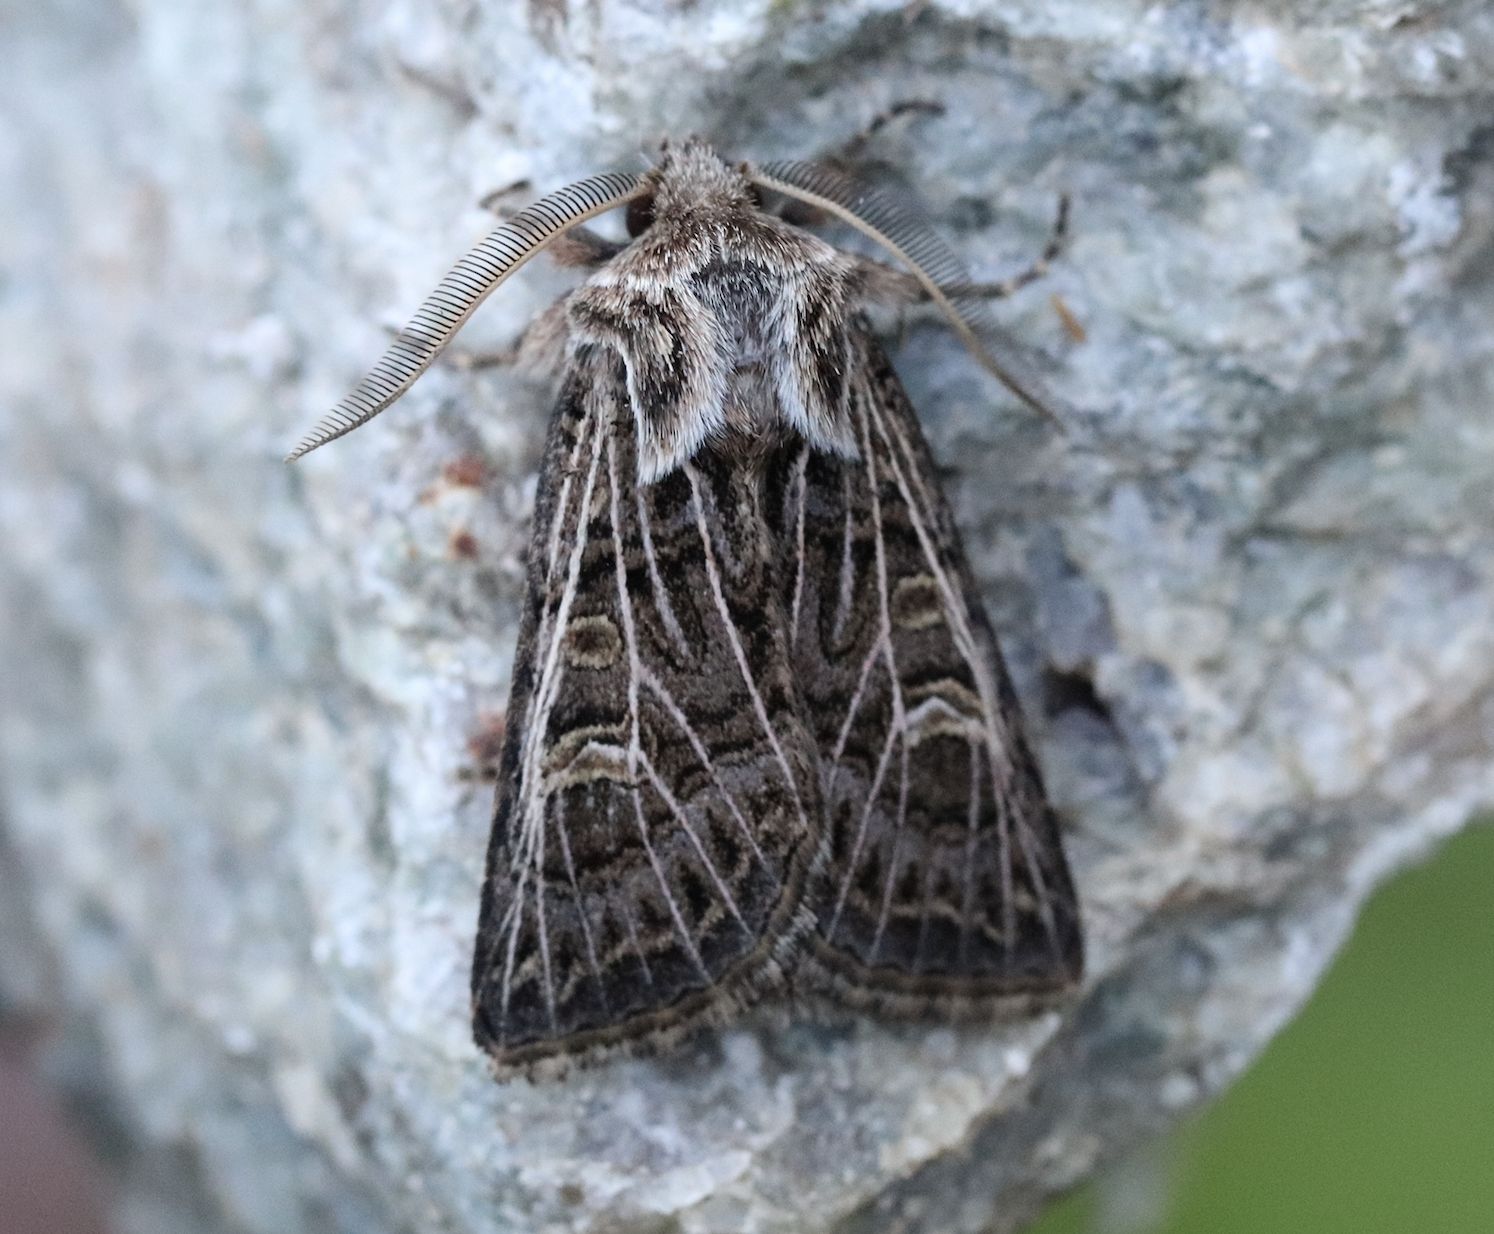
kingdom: Animalia
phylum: Arthropoda
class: Insecta
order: Lepidoptera
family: Noctuidae
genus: Tholera
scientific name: Tholera decimalis
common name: Feathered gothic
